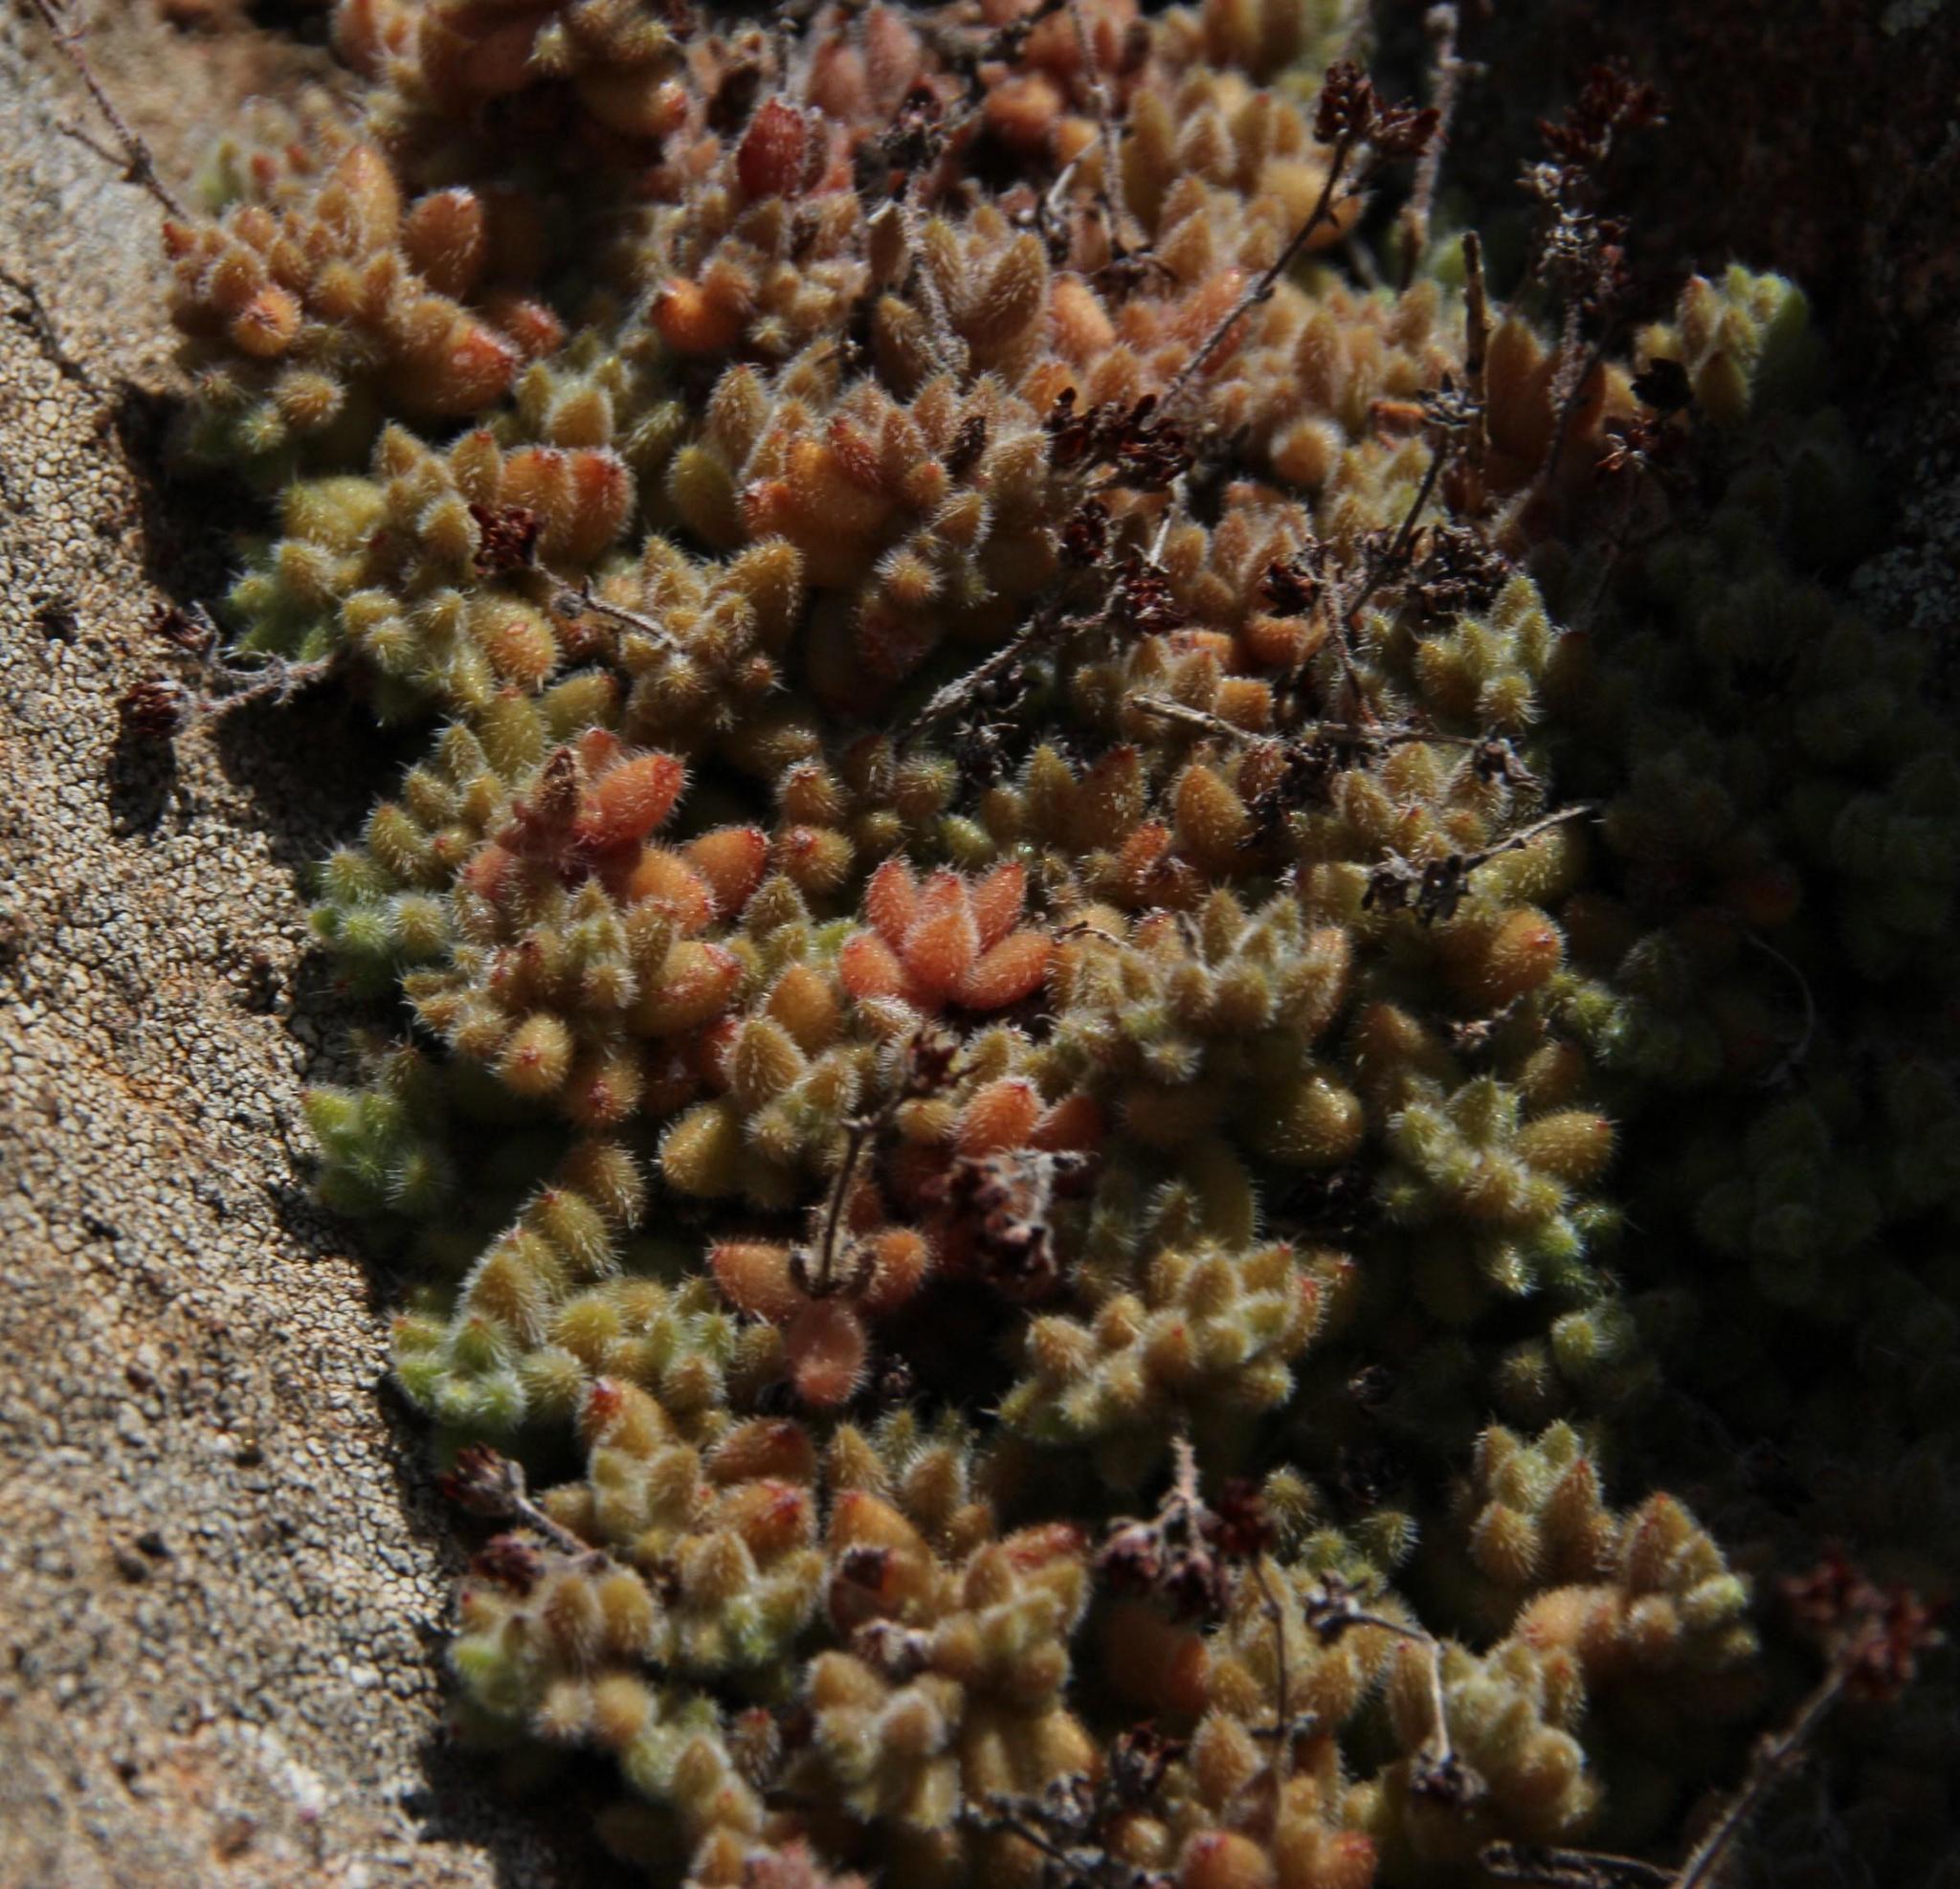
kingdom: Plantae
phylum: Tracheophyta
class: Magnoliopsida
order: Saxifragales
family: Crassulaceae
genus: Crassula
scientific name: Crassula lanuginosa
